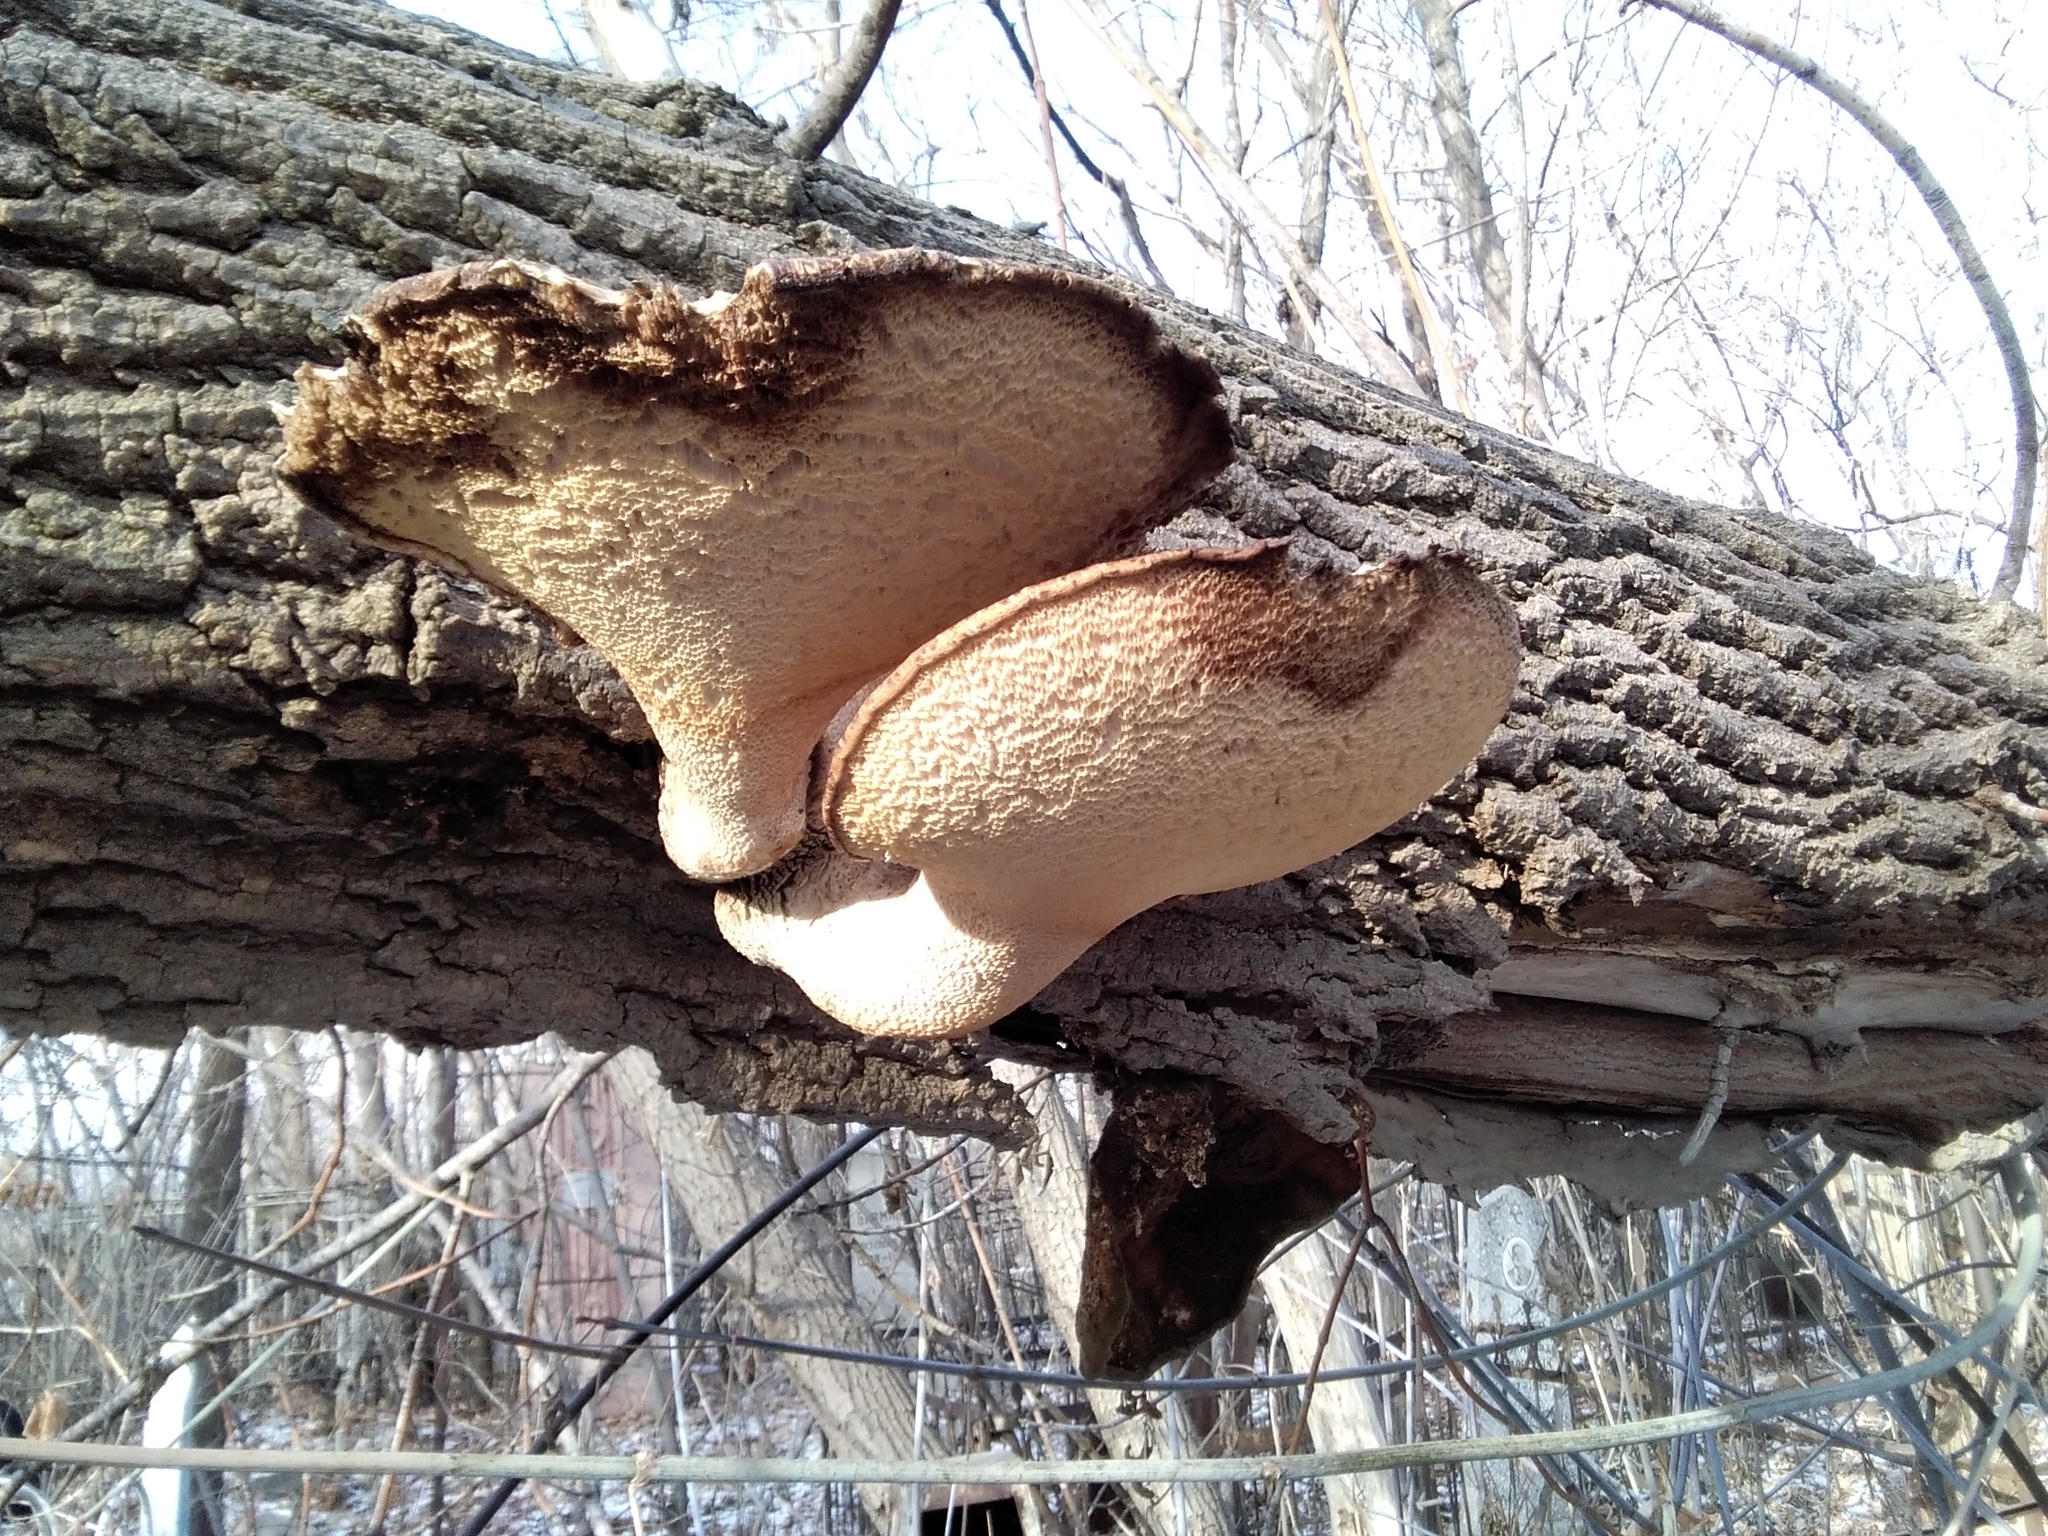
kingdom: Fungi
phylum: Basidiomycota
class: Agaricomycetes
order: Polyporales
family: Polyporaceae
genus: Cerioporus
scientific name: Cerioporus squamosus
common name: Dryad's saddle
